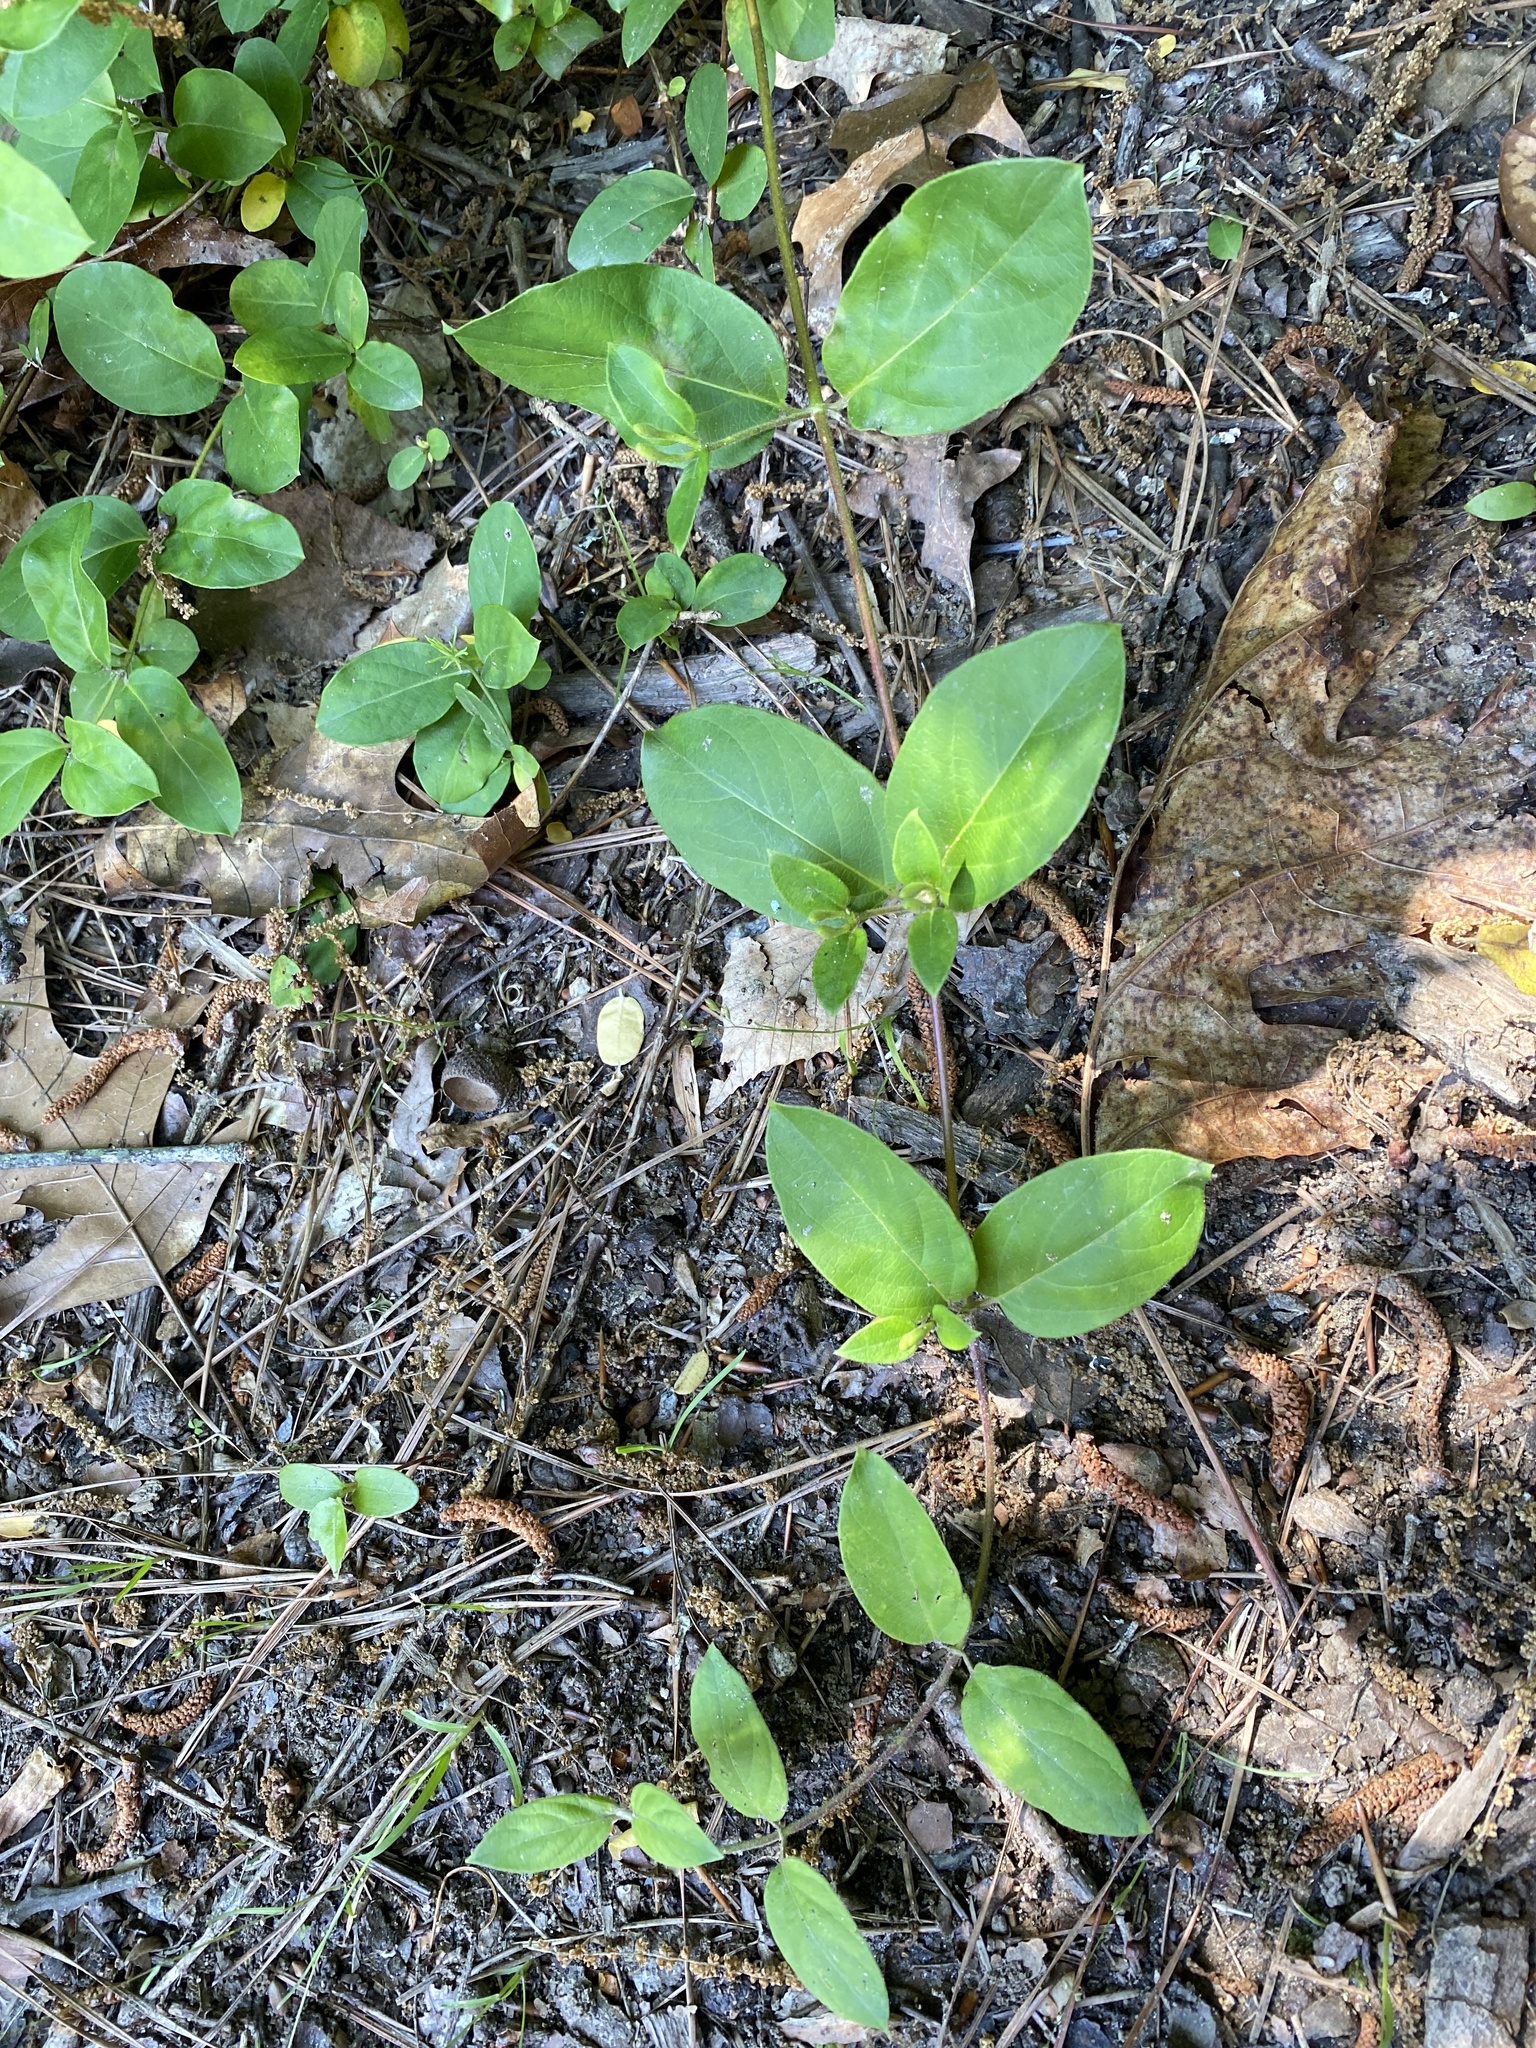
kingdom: Plantae
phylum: Tracheophyta
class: Magnoliopsida
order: Dipsacales
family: Caprifoliaceae
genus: Lonicera
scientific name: Lonicera japonica
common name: Japanese honeysuckle
